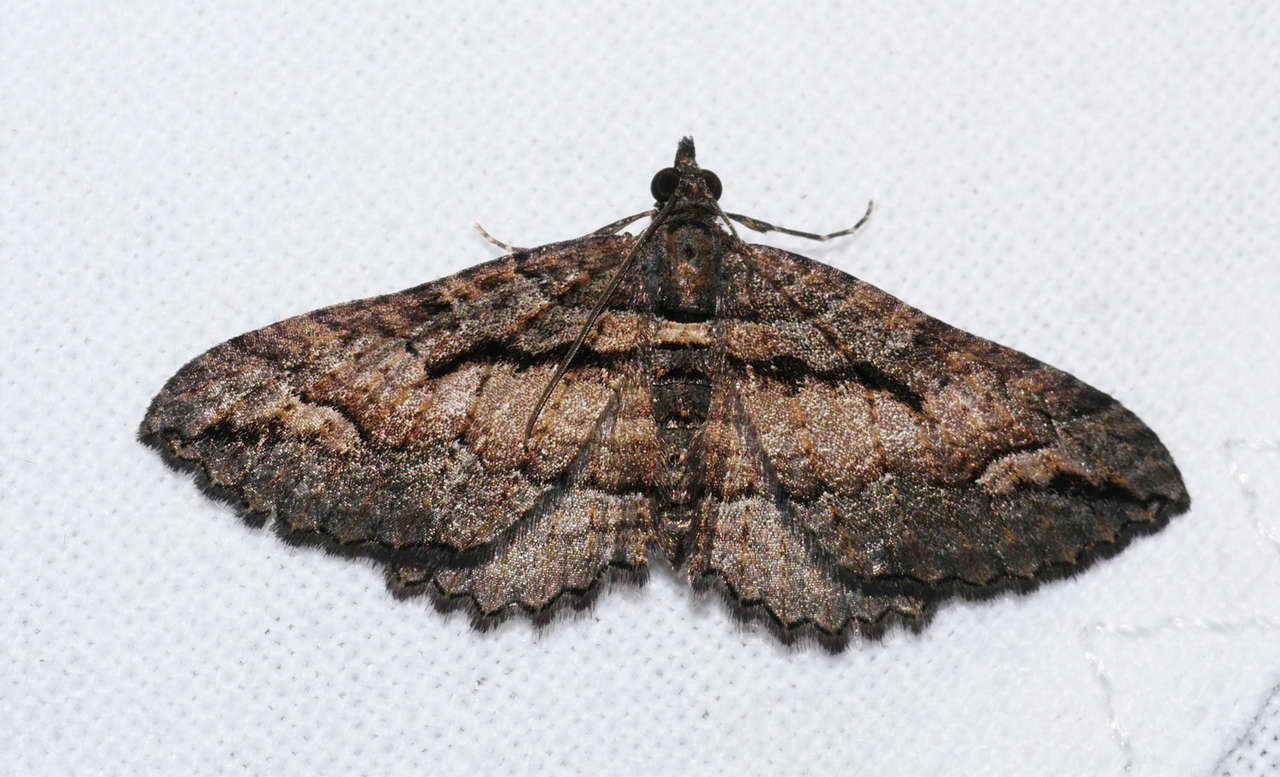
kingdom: Animalia
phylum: Arthropoda
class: Insecta
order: Lepidoptera
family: Geometridae
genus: Chrysolarentia
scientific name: Chrysolarentia plagiocausta
